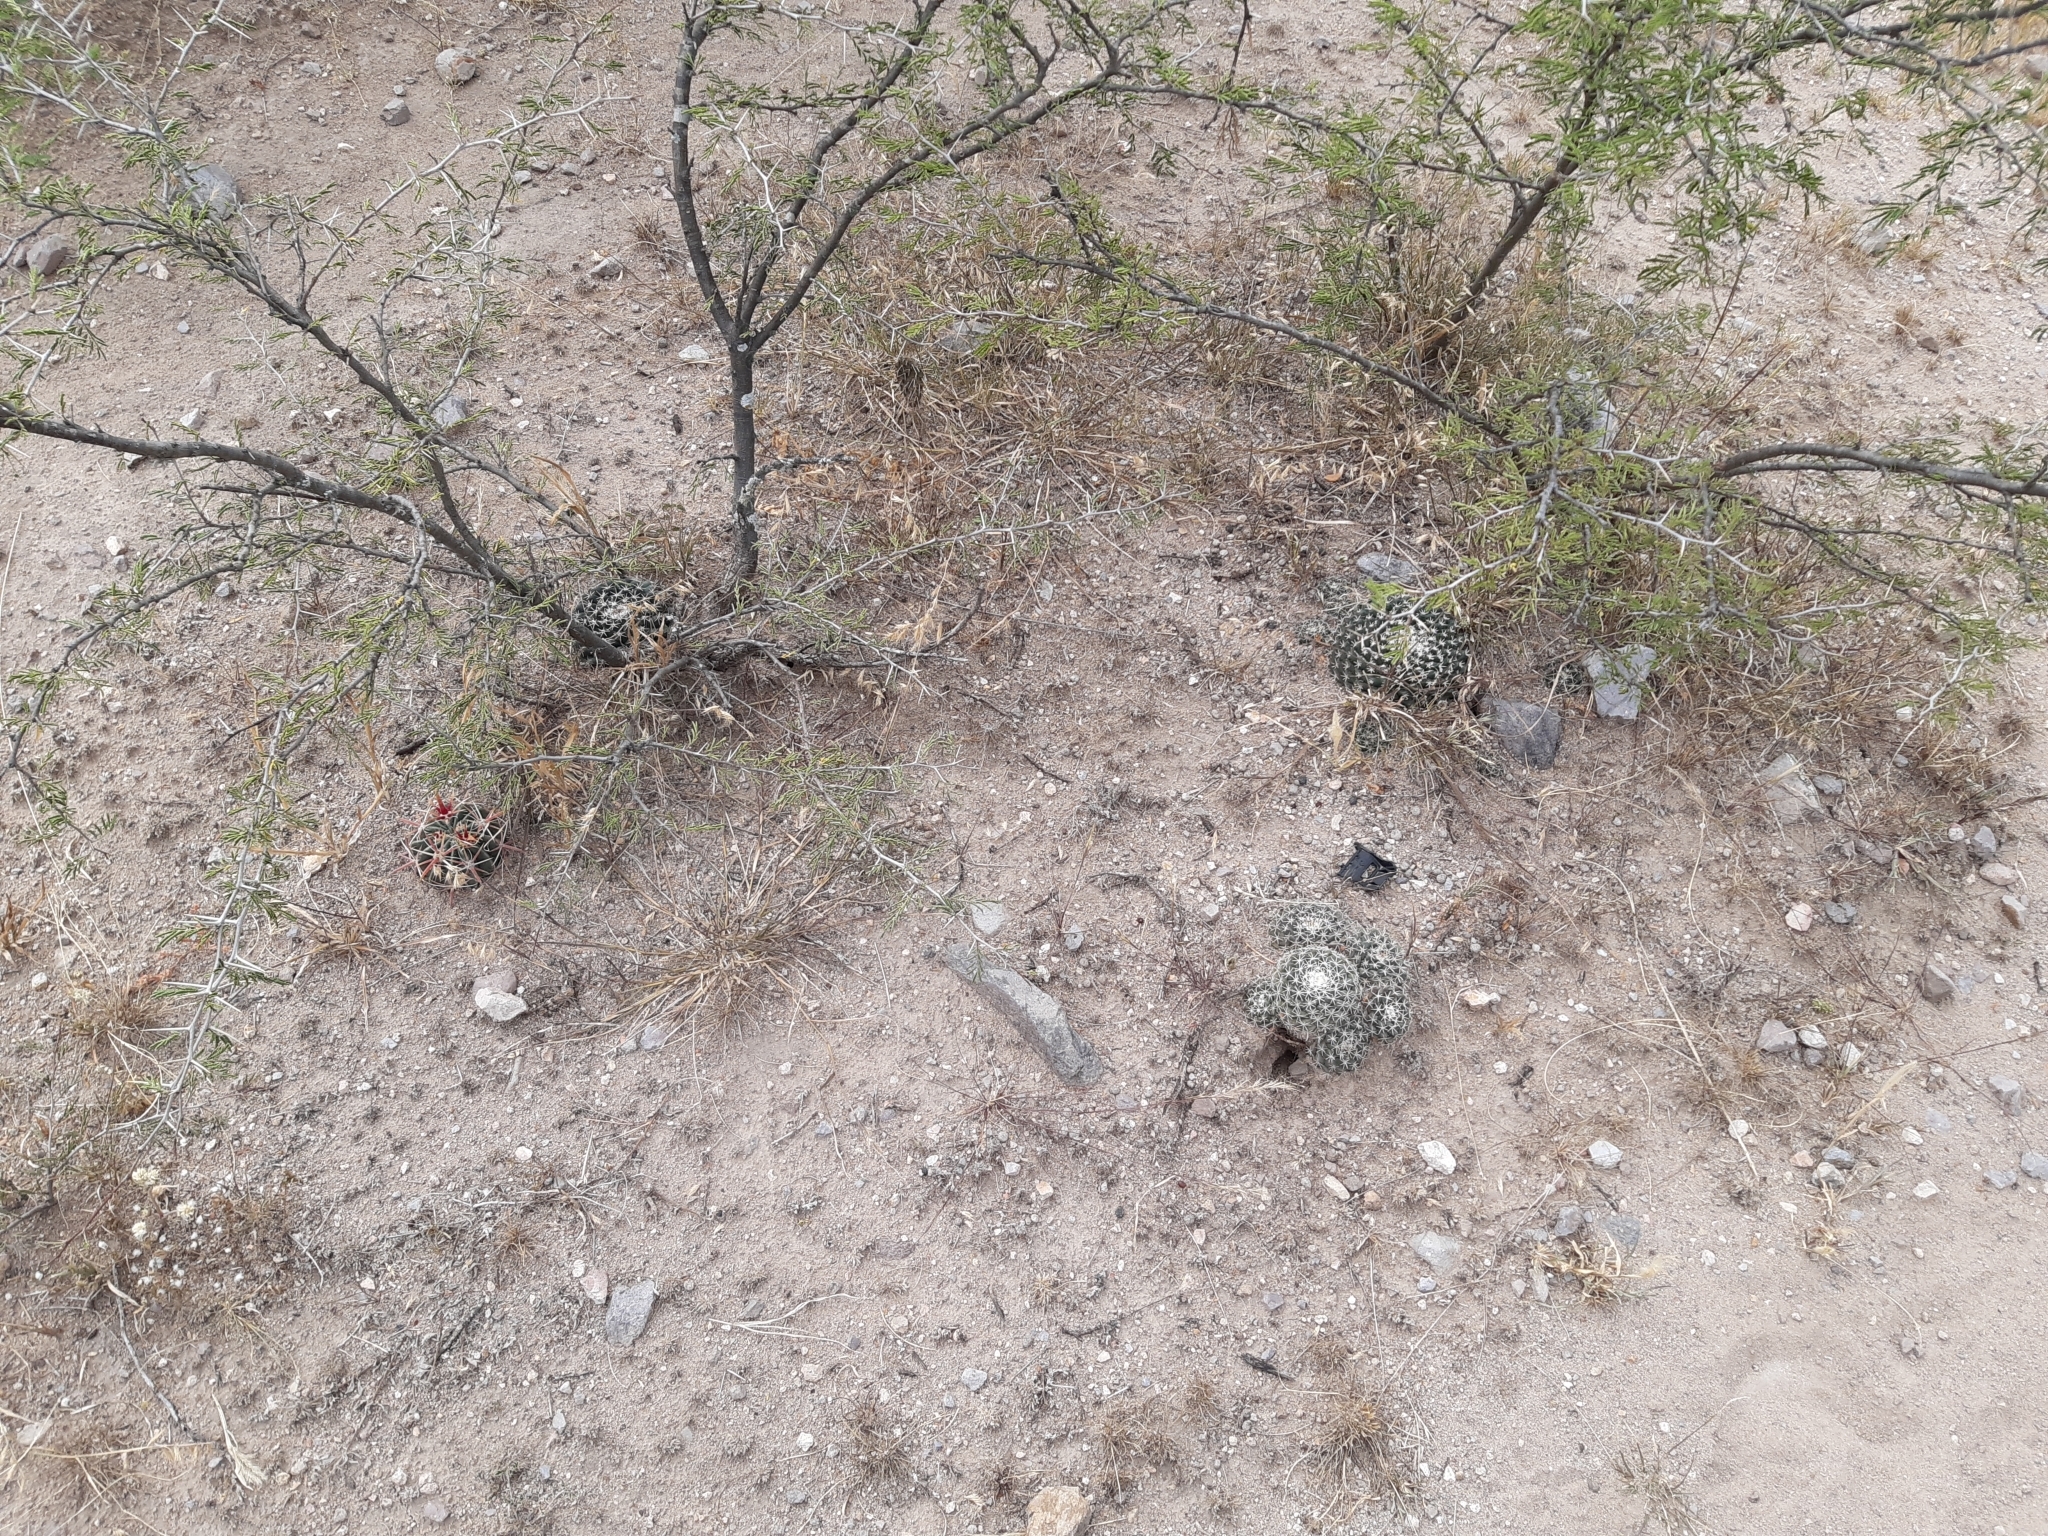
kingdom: Plantae
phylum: Tracheophyta
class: Magnoliopsida
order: Caryophyllales
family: Cactaceae
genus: Mammillaria
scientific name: Mammillaria uncinata
